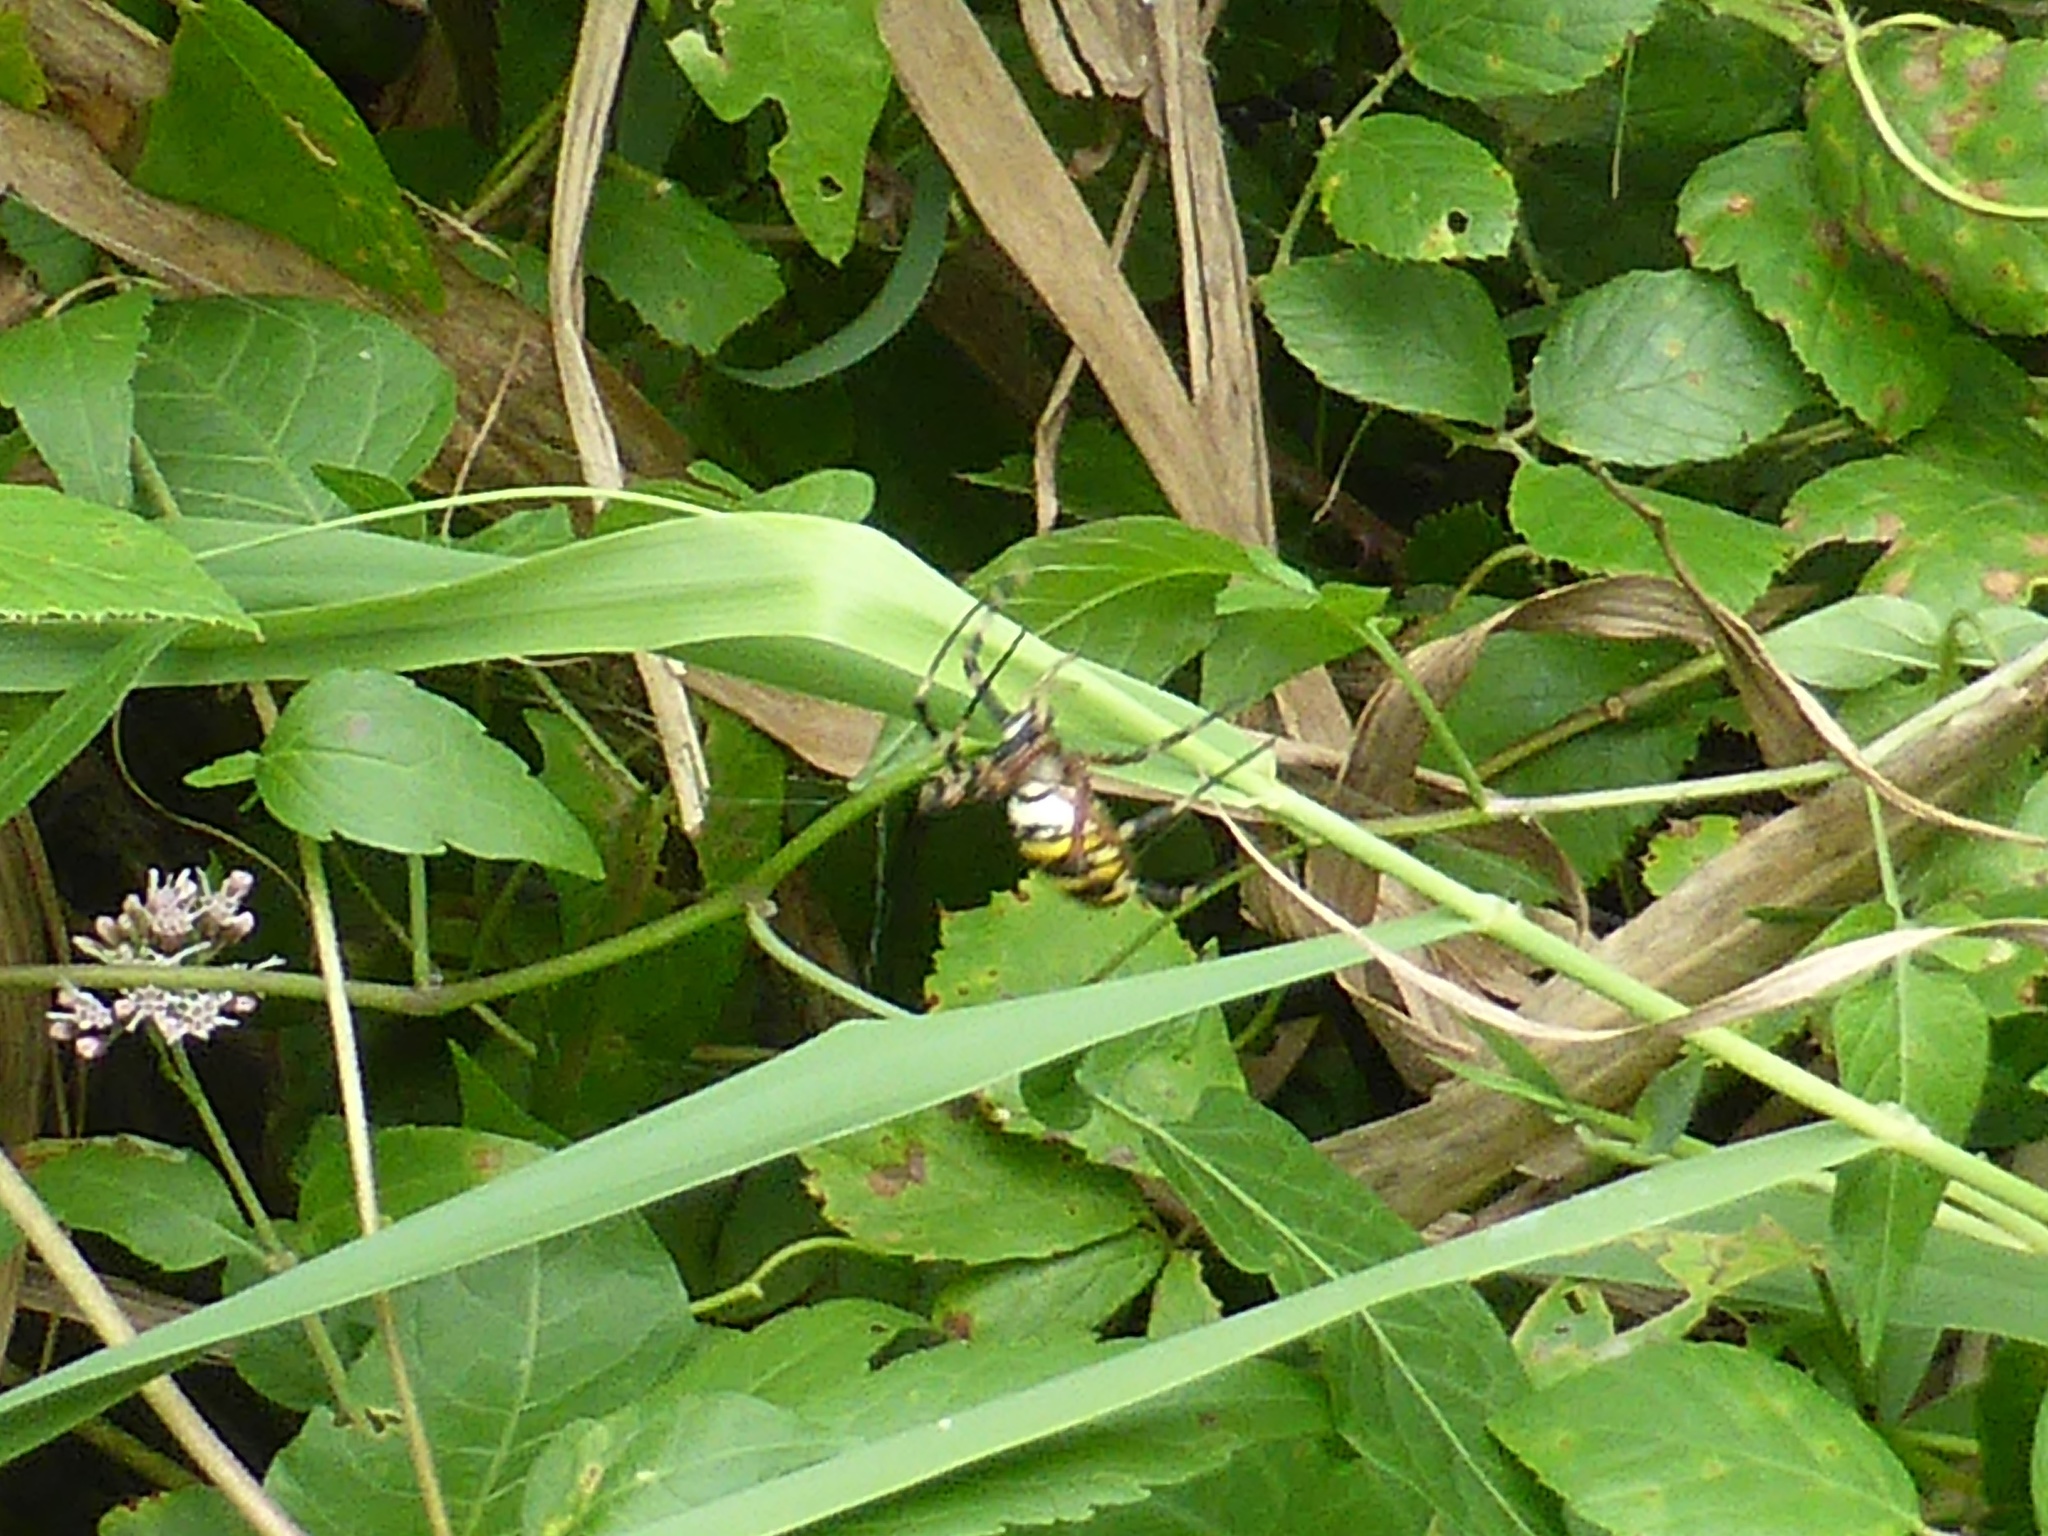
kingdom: Animalia
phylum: Arthropoda
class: Arachnida
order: Araneae
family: Araneidae
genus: Argiope
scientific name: Argiope bruennichi
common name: Wasp spider
